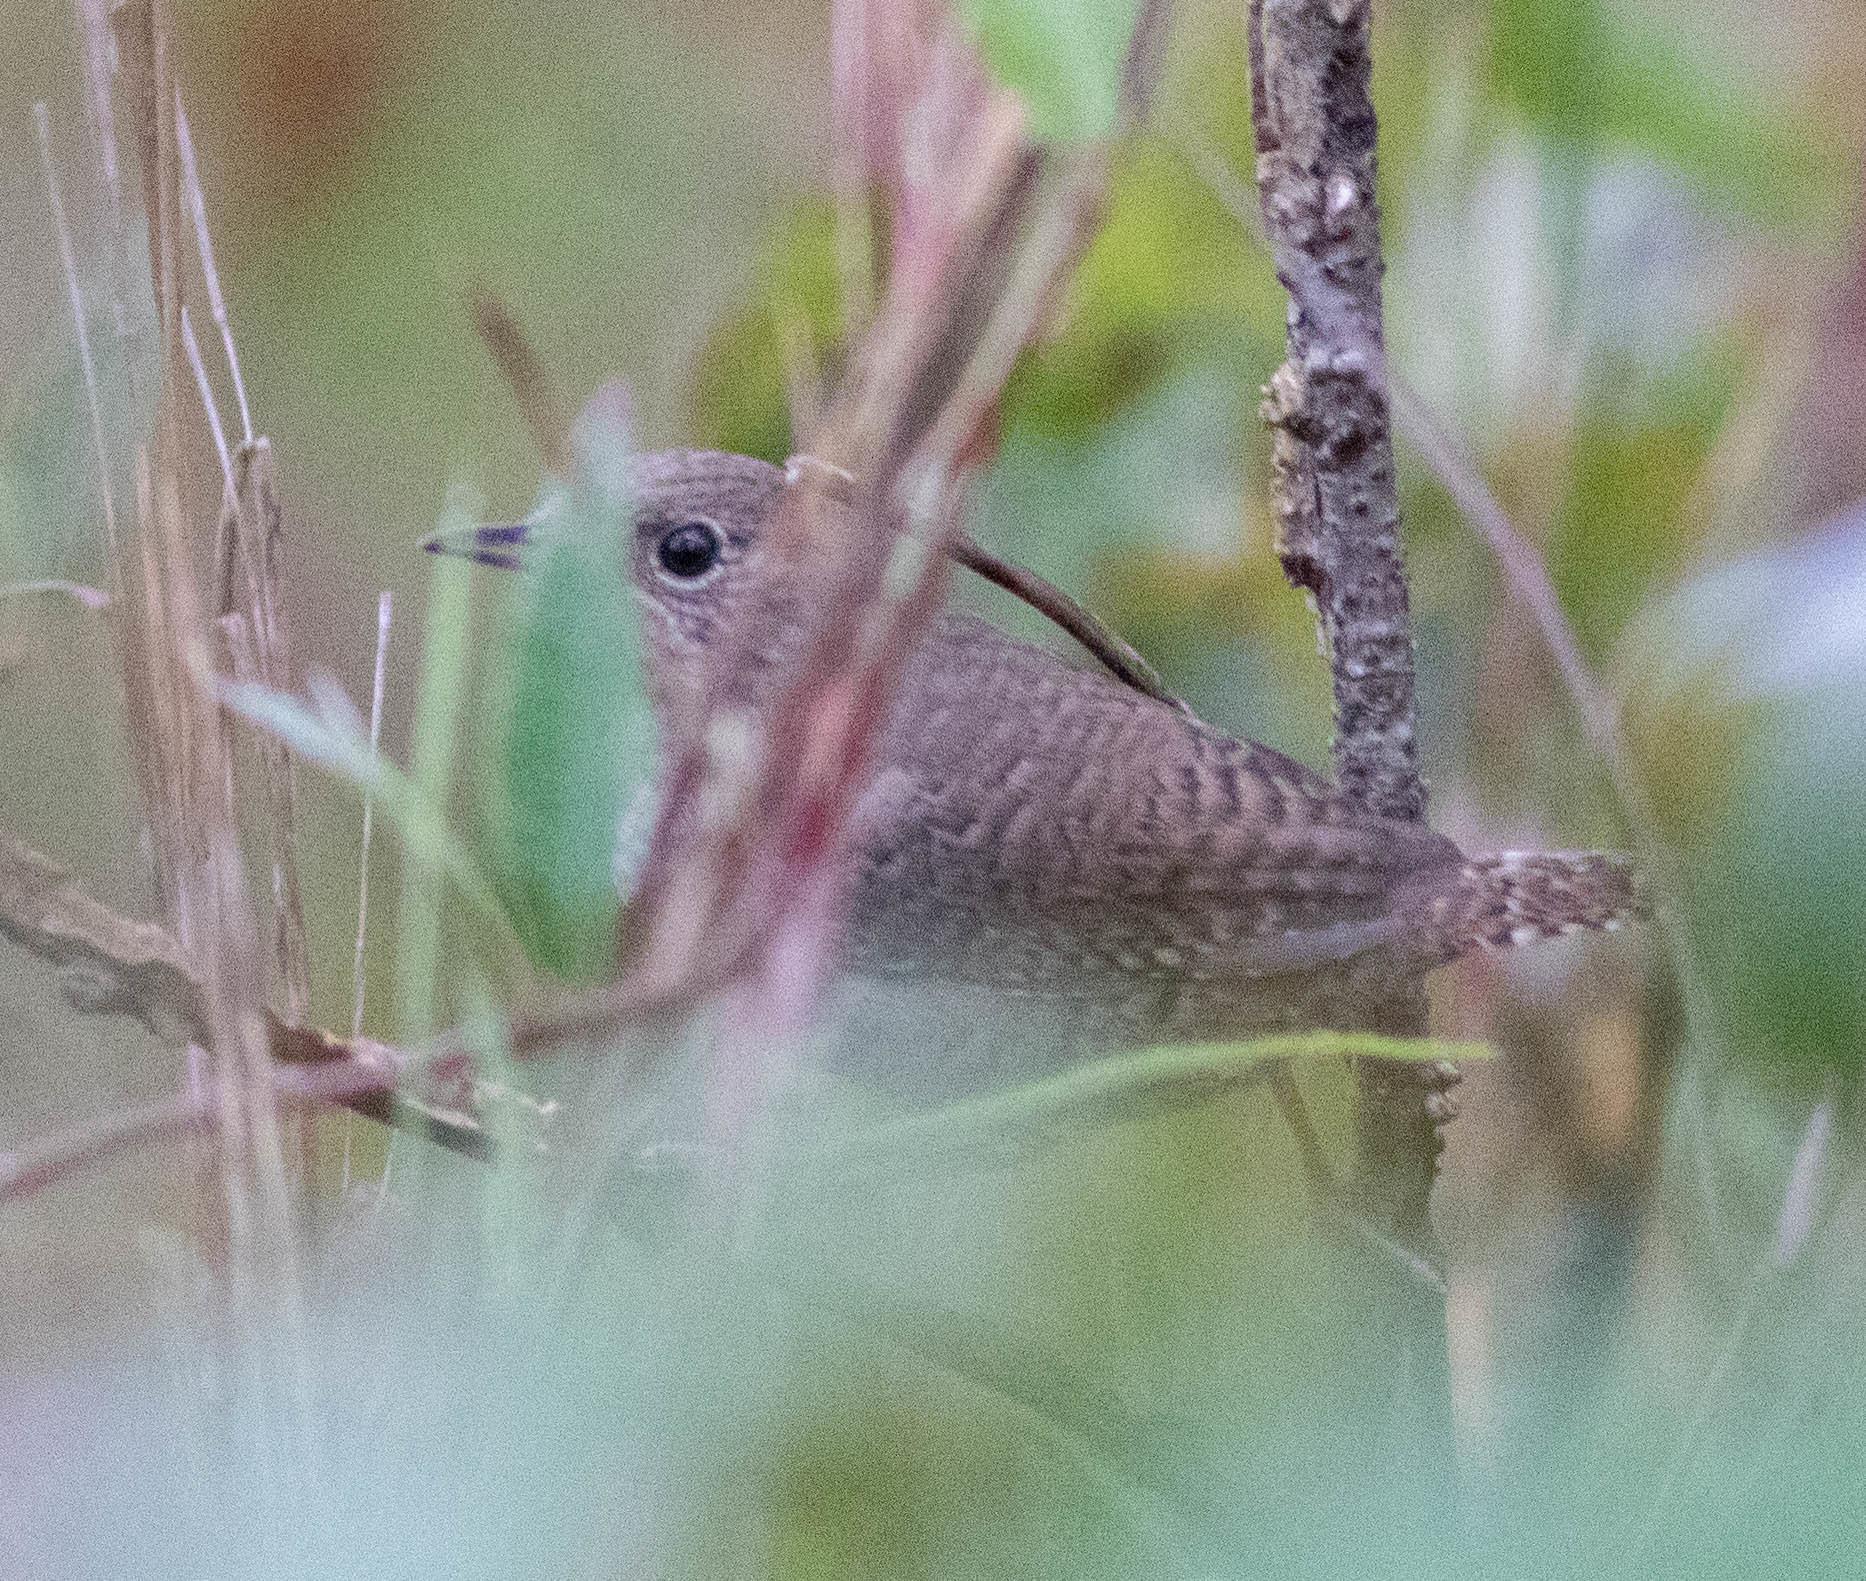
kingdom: Animalia
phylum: Chordata
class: Aves
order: Passeriformes
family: Troglodytidae
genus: Troglodytes
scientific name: Troglodytes aedon
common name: House wren
